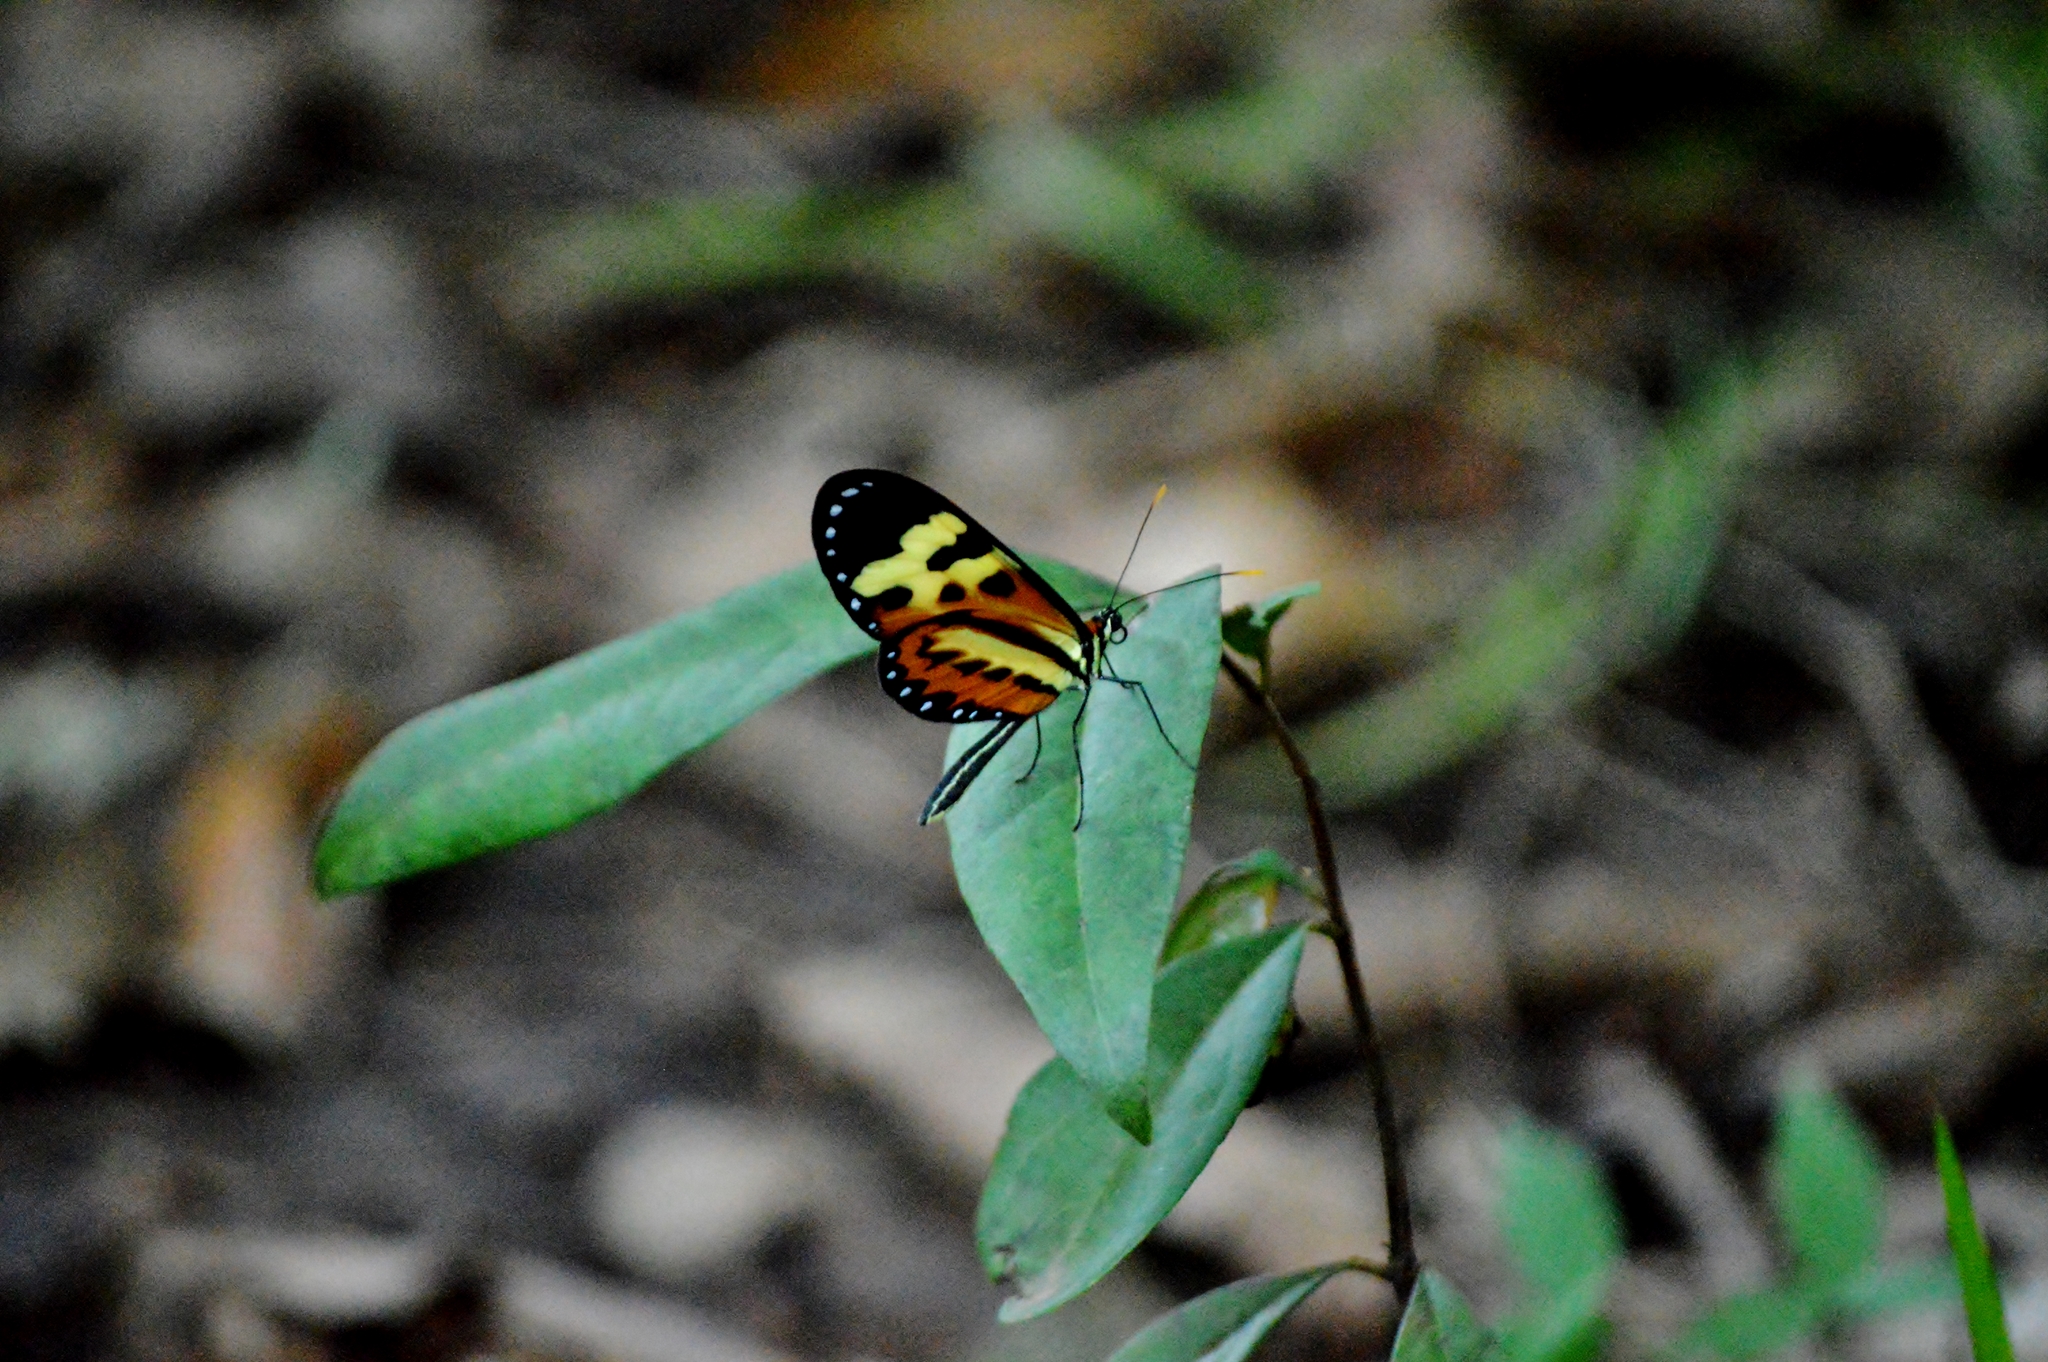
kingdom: Animalia
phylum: Arthropoda
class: Insecta
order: Lepidoptera
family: Nymphalidae
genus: Mechanitis
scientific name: Mechanitis polymnia
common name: Disturbed tigerwing
